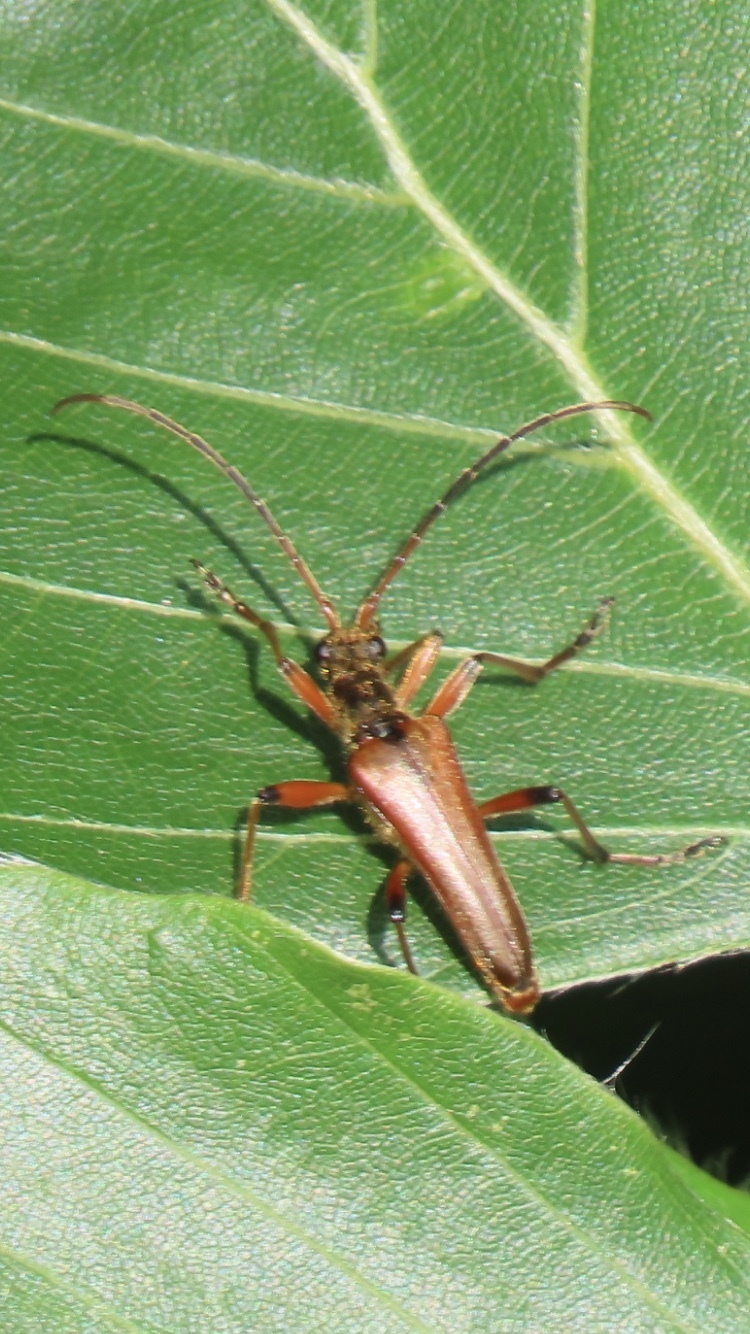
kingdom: Animalia
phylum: Arthropoda
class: Insecta
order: Coleoptera
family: Cerambycidae
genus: Stenocorus
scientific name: Stenocorus meridianus
